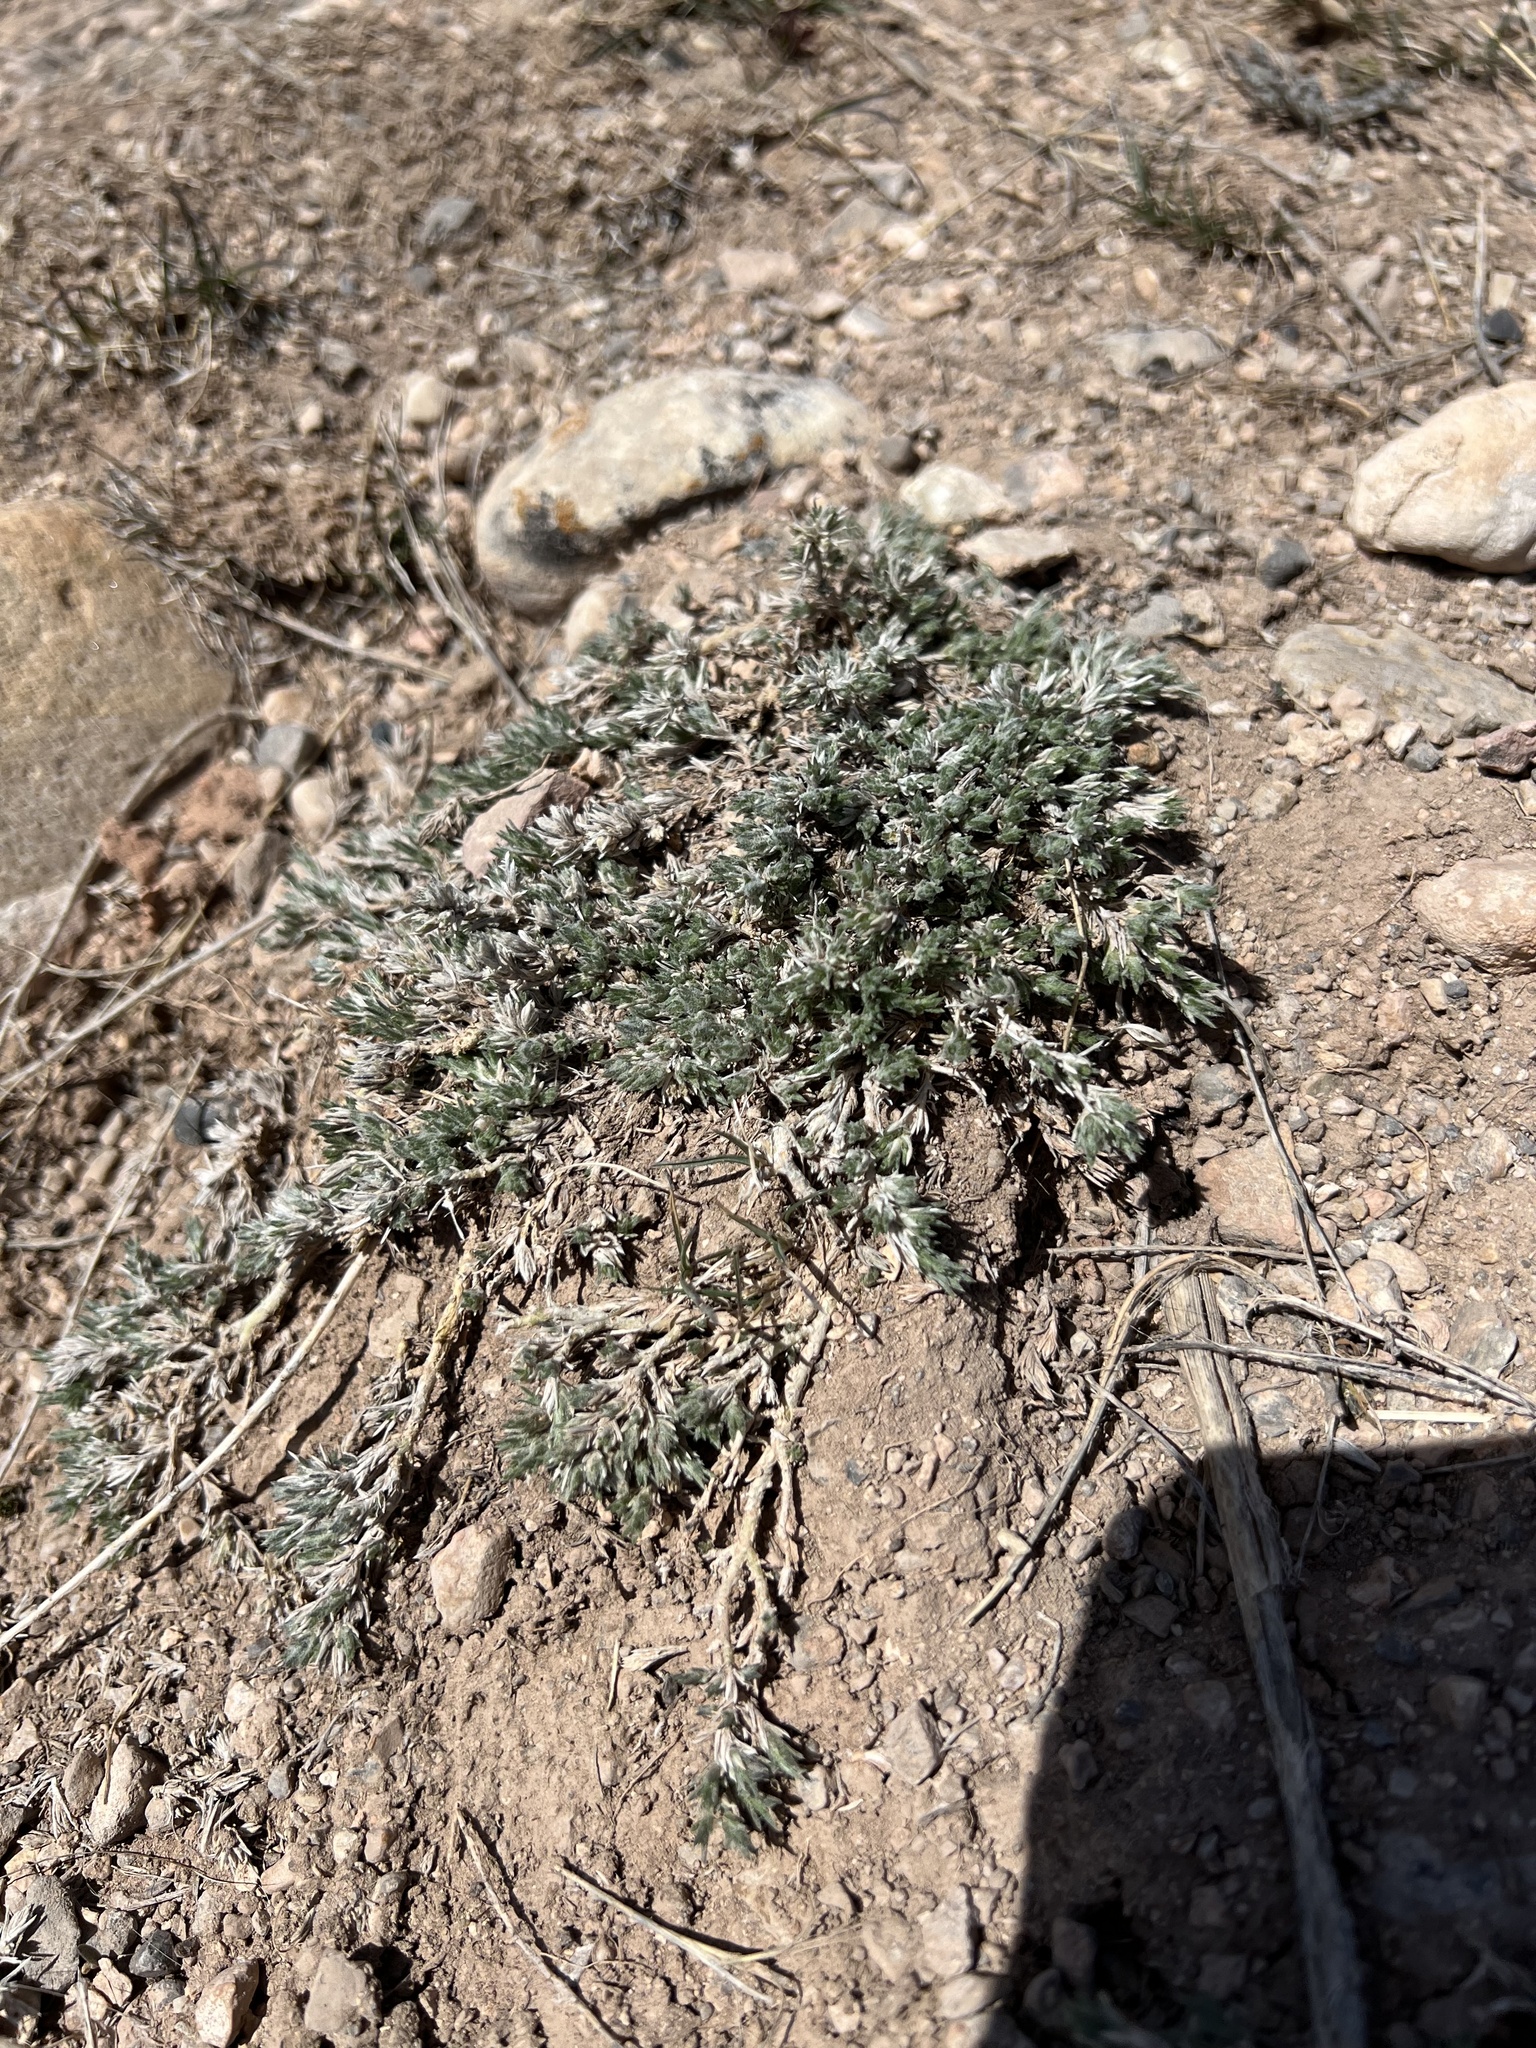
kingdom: Plantae
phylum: Tracheophyta
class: Magnoliopsida
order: Ericales
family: Polemoniaceae
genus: Phlox
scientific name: Phlox hoodii
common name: Moss phlox
